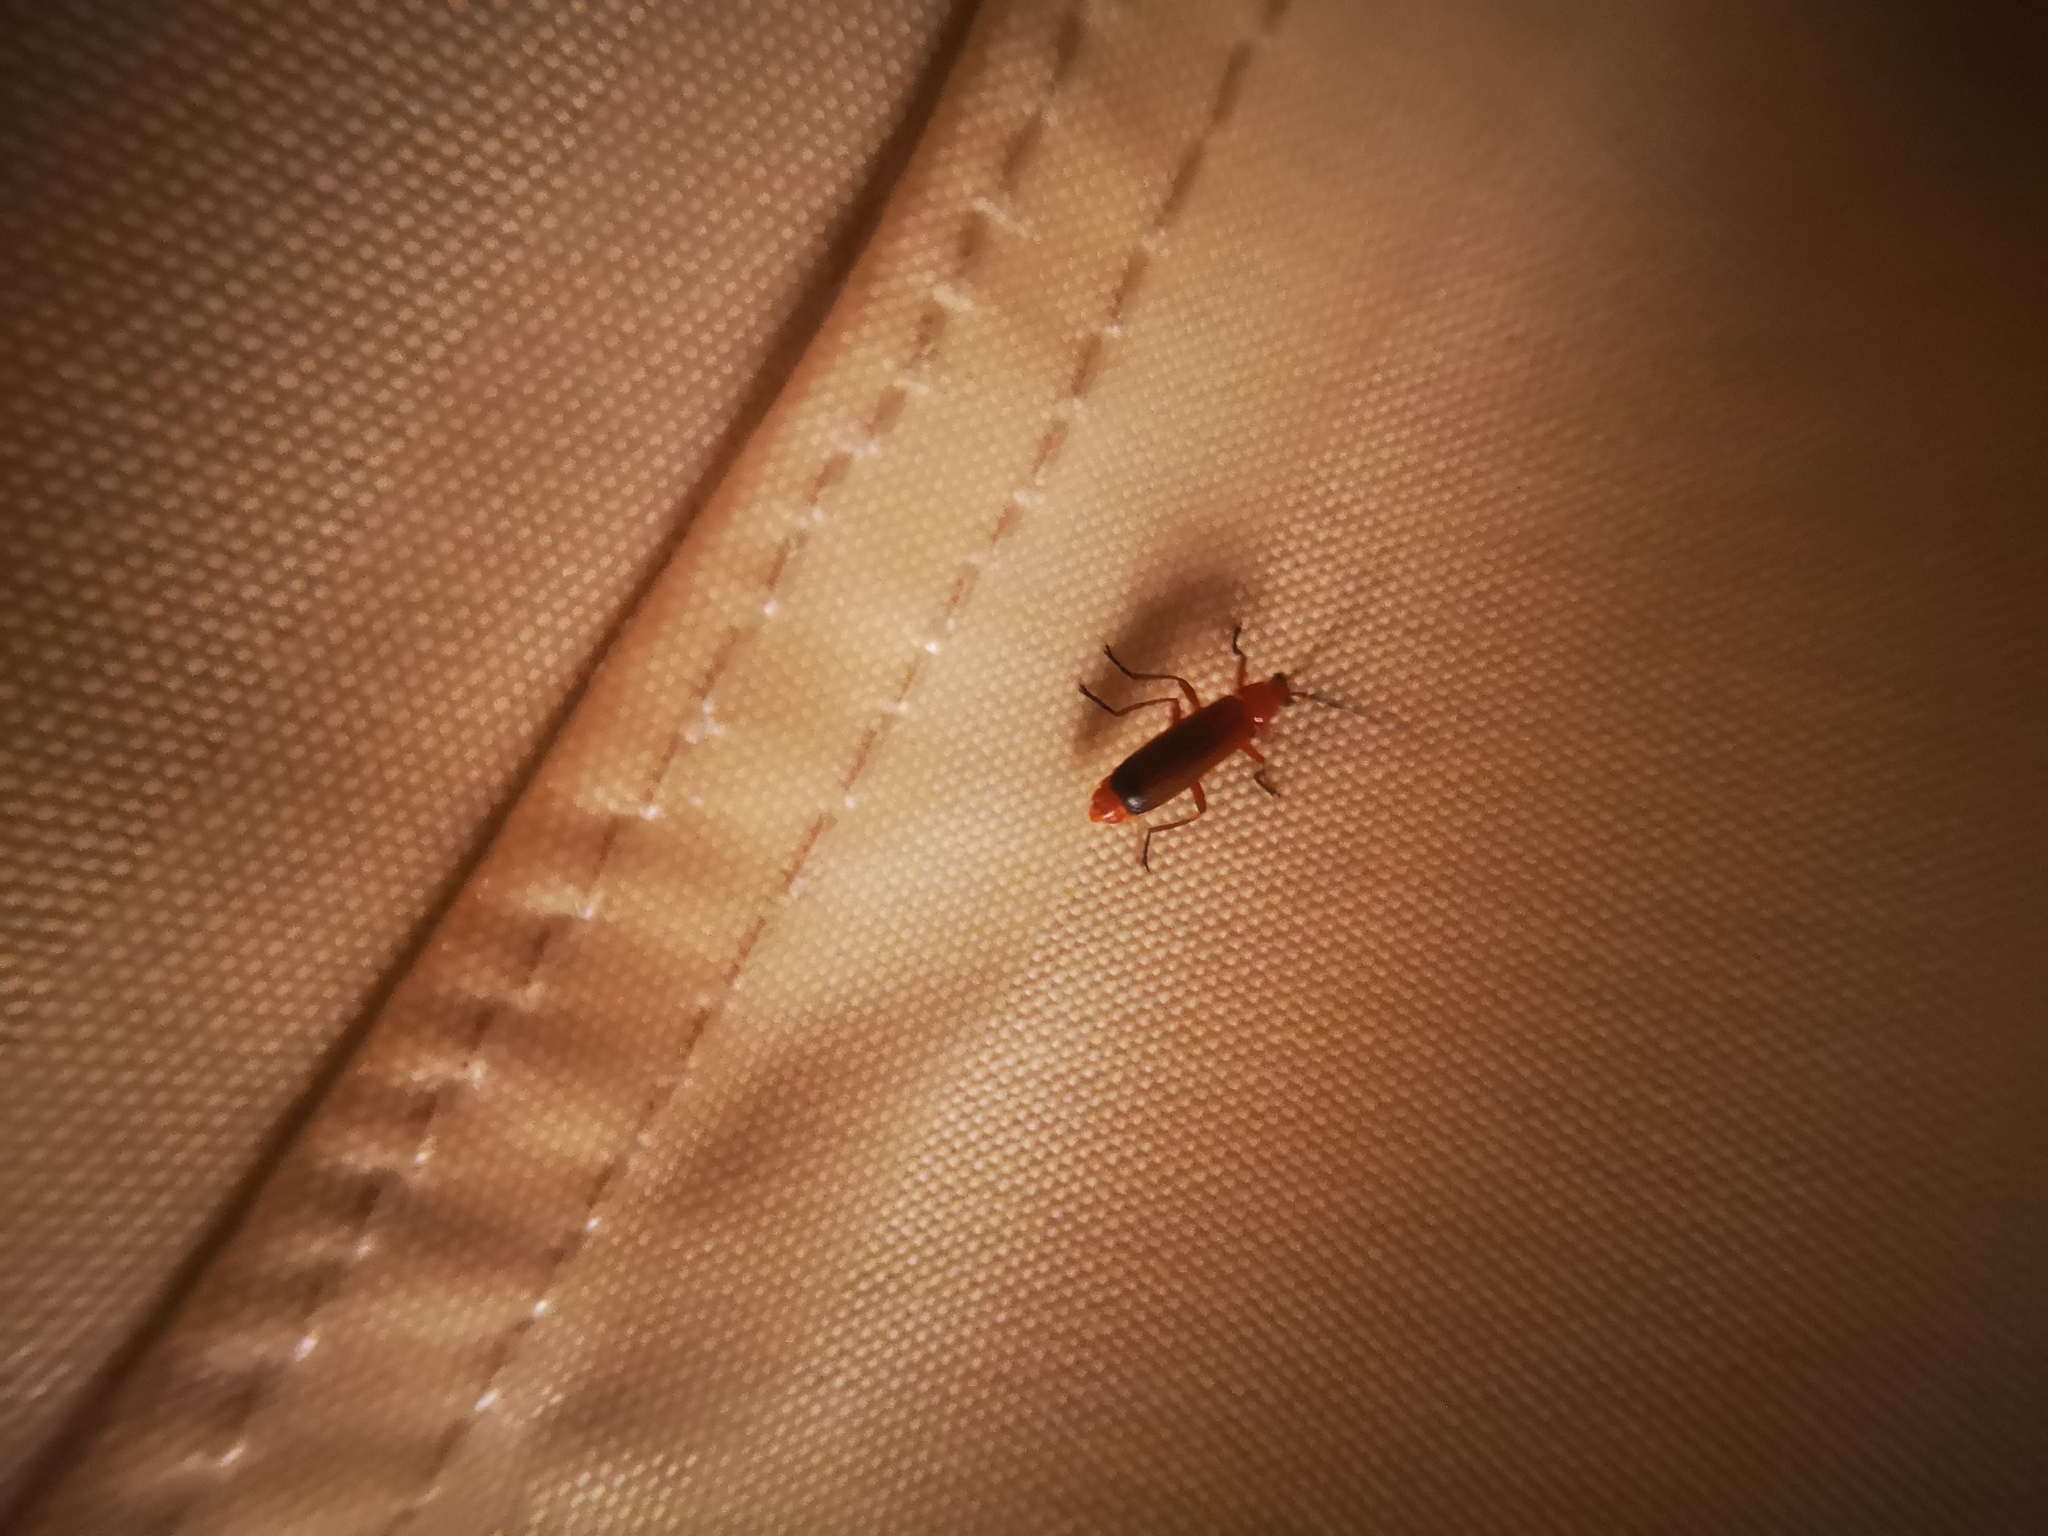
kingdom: Animalia
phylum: Arthropoda
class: Insecta
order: Coleoptera
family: Cantharidae
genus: Rhagonycha
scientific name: Rhagonycha fulva
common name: Common red soldier beetle
